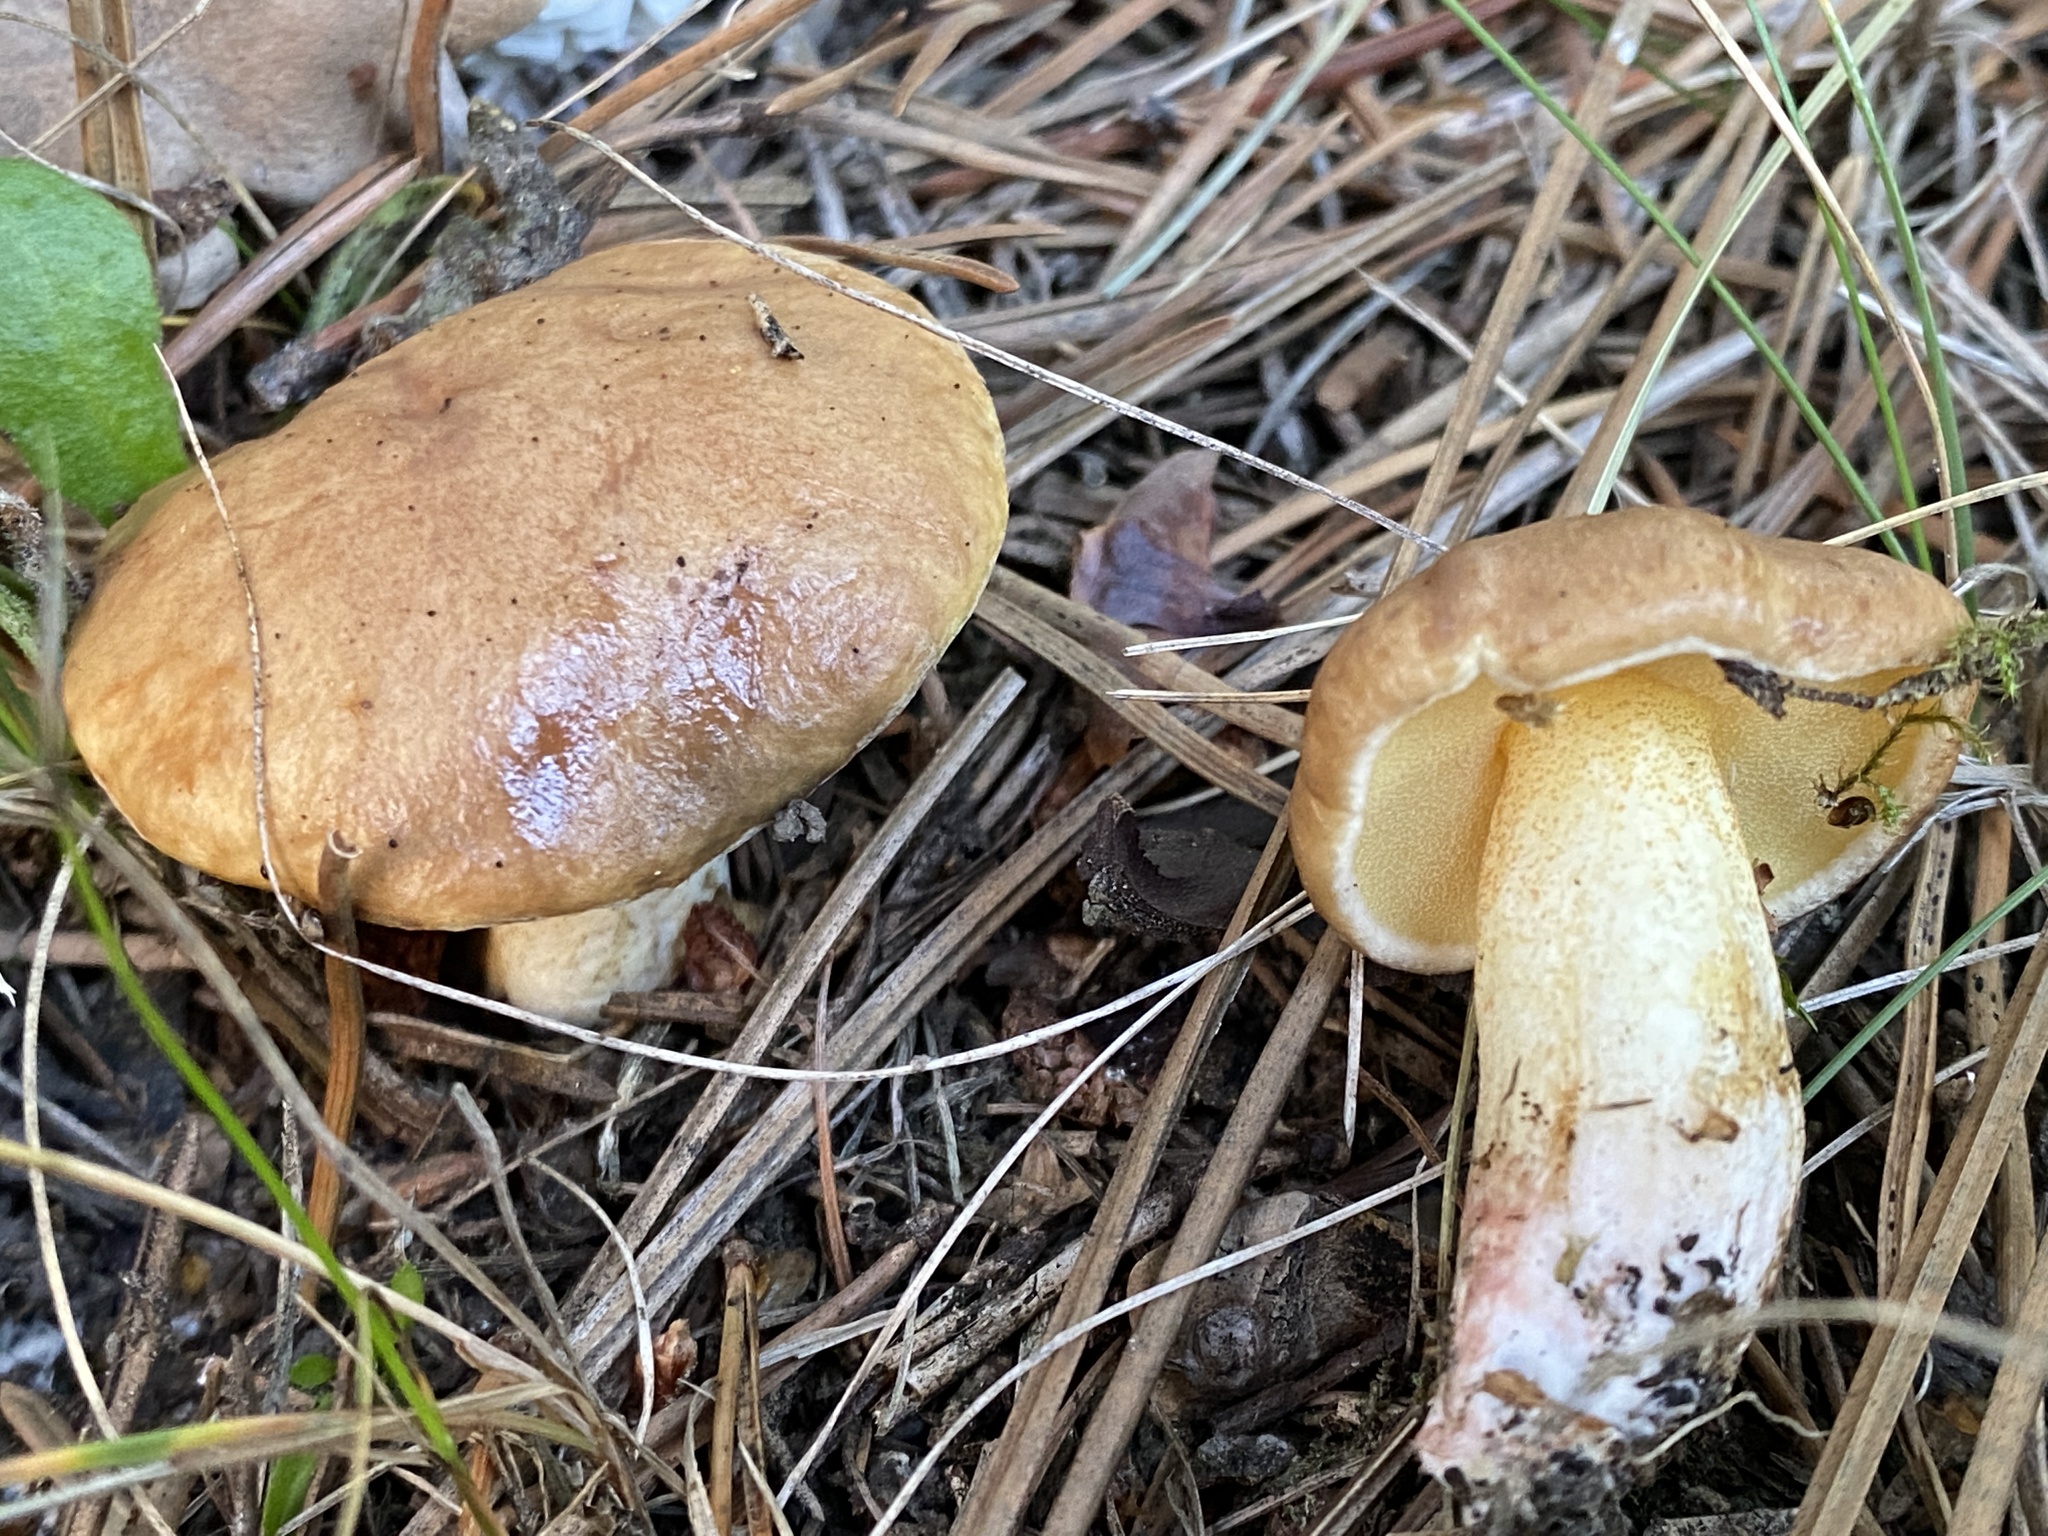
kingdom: Fungi
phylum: Basidiomycota
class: Agaricomycetes
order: Boletales
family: Suillaceae
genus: Suillus
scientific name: Suillus collinitus
